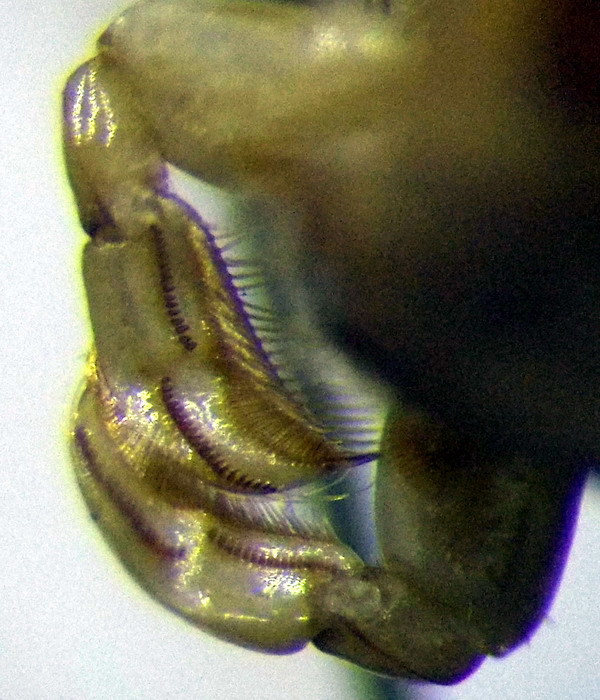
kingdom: Animalia
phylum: Arthropoda
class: Insecta
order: Hemiptera
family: Corixidae
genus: Sigara
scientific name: Sigara striata
